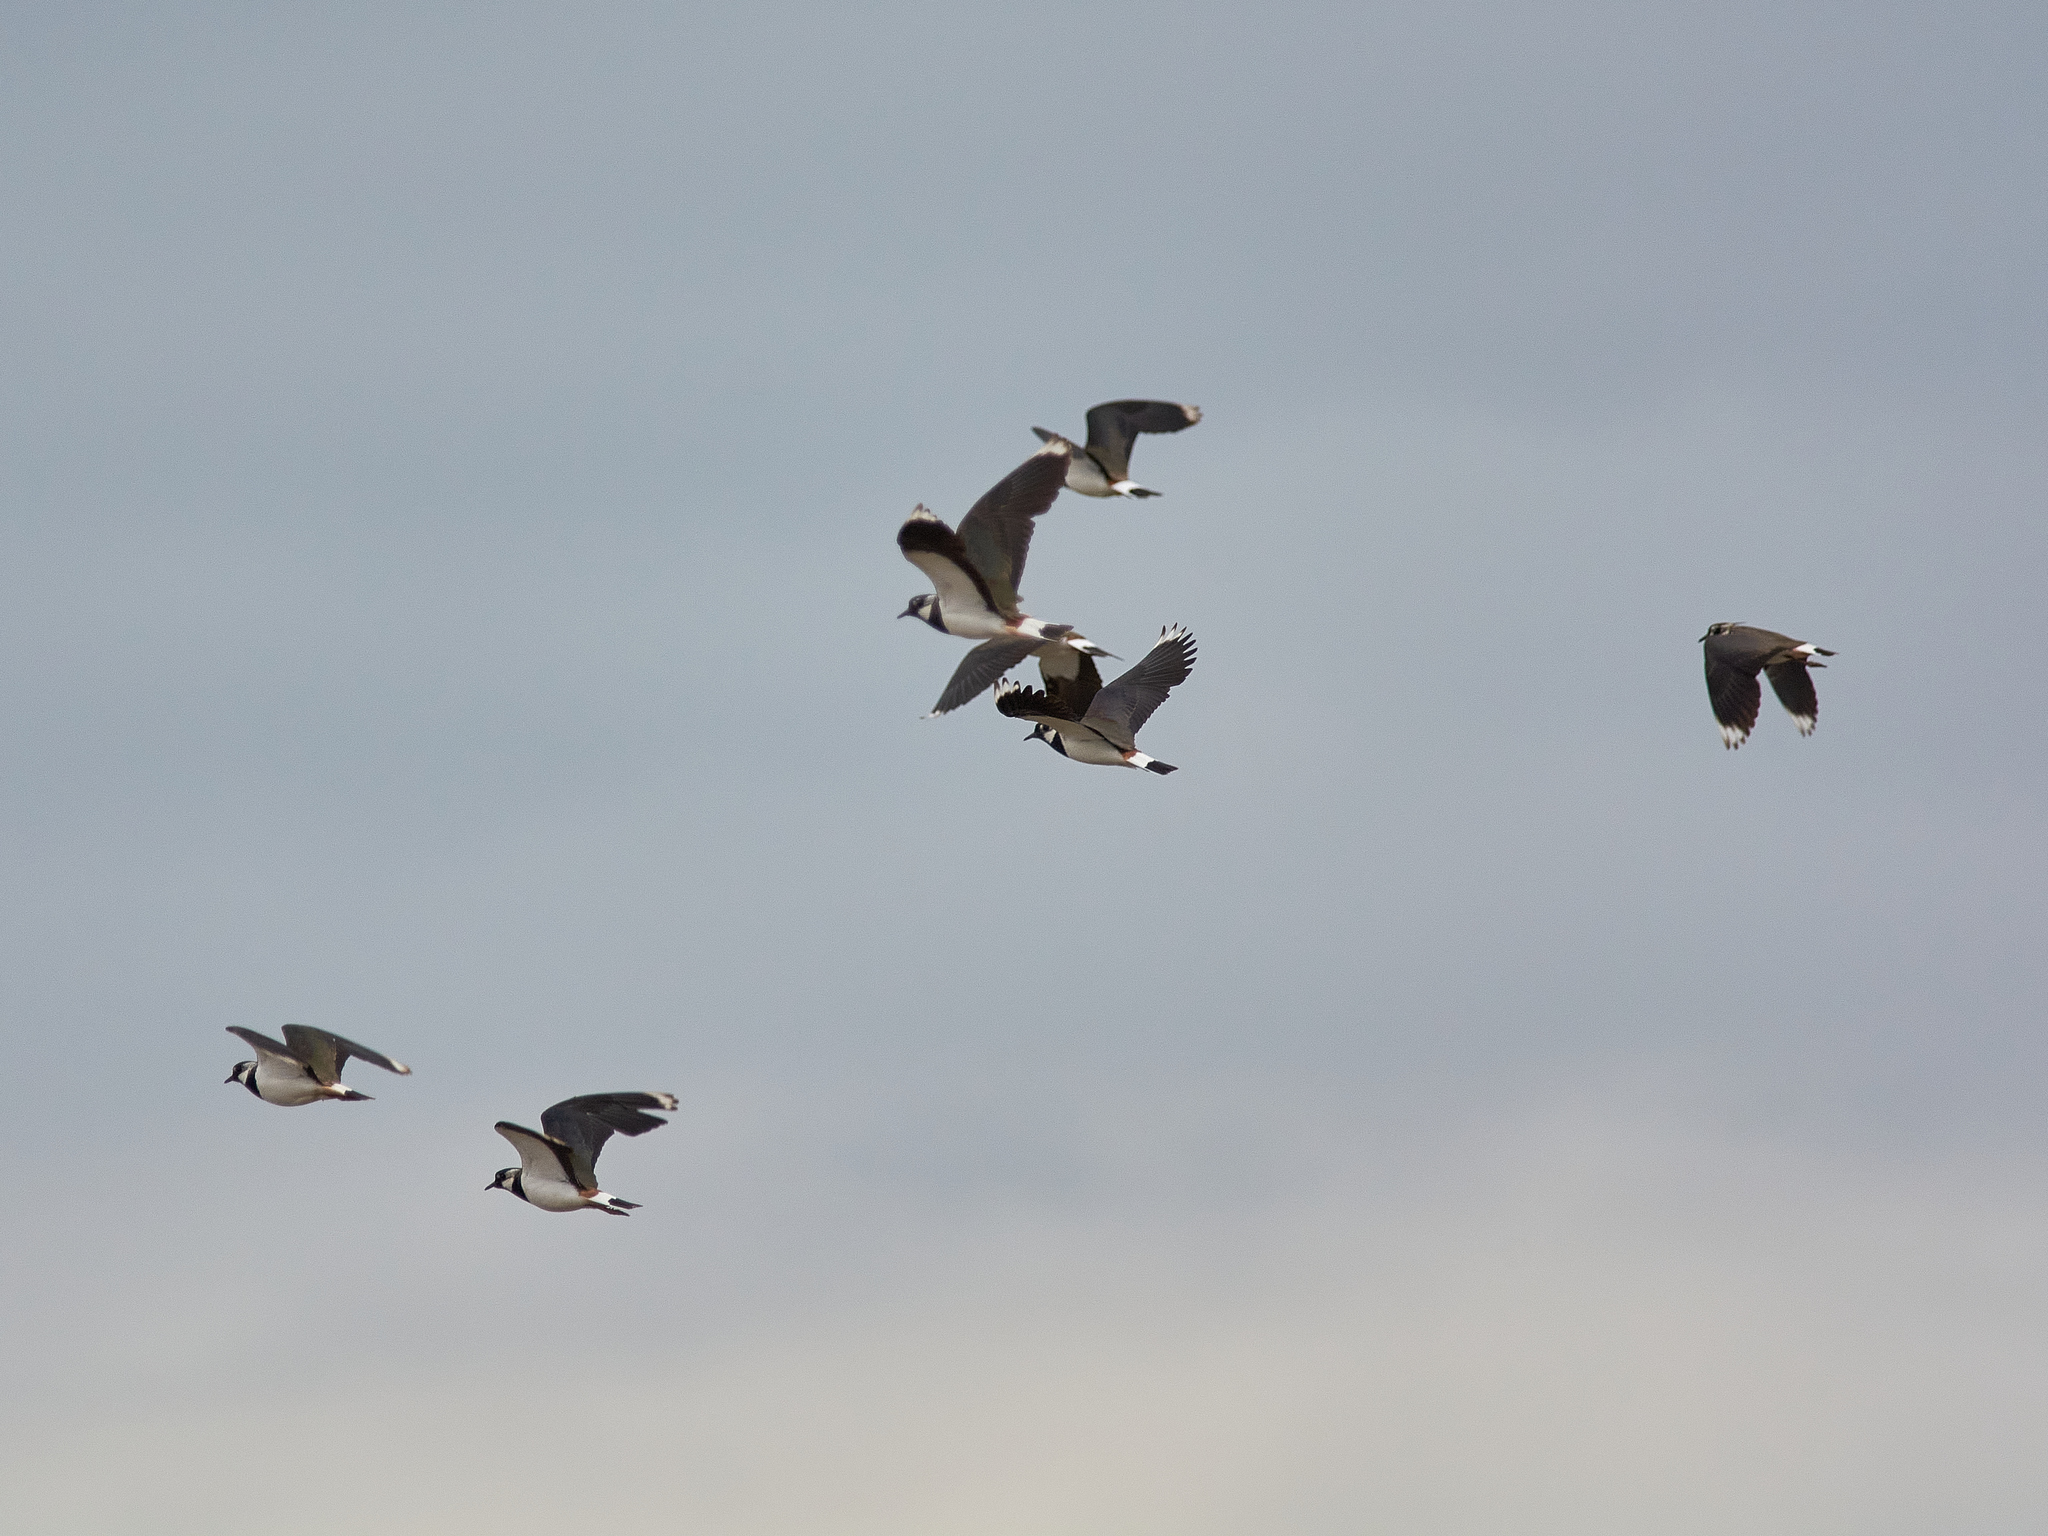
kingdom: Animalia
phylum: Chordata
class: Aves
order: Charadriiformes
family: Charadriidae
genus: Vanellus
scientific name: Vanellus vanellus
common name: Northern lapwing
